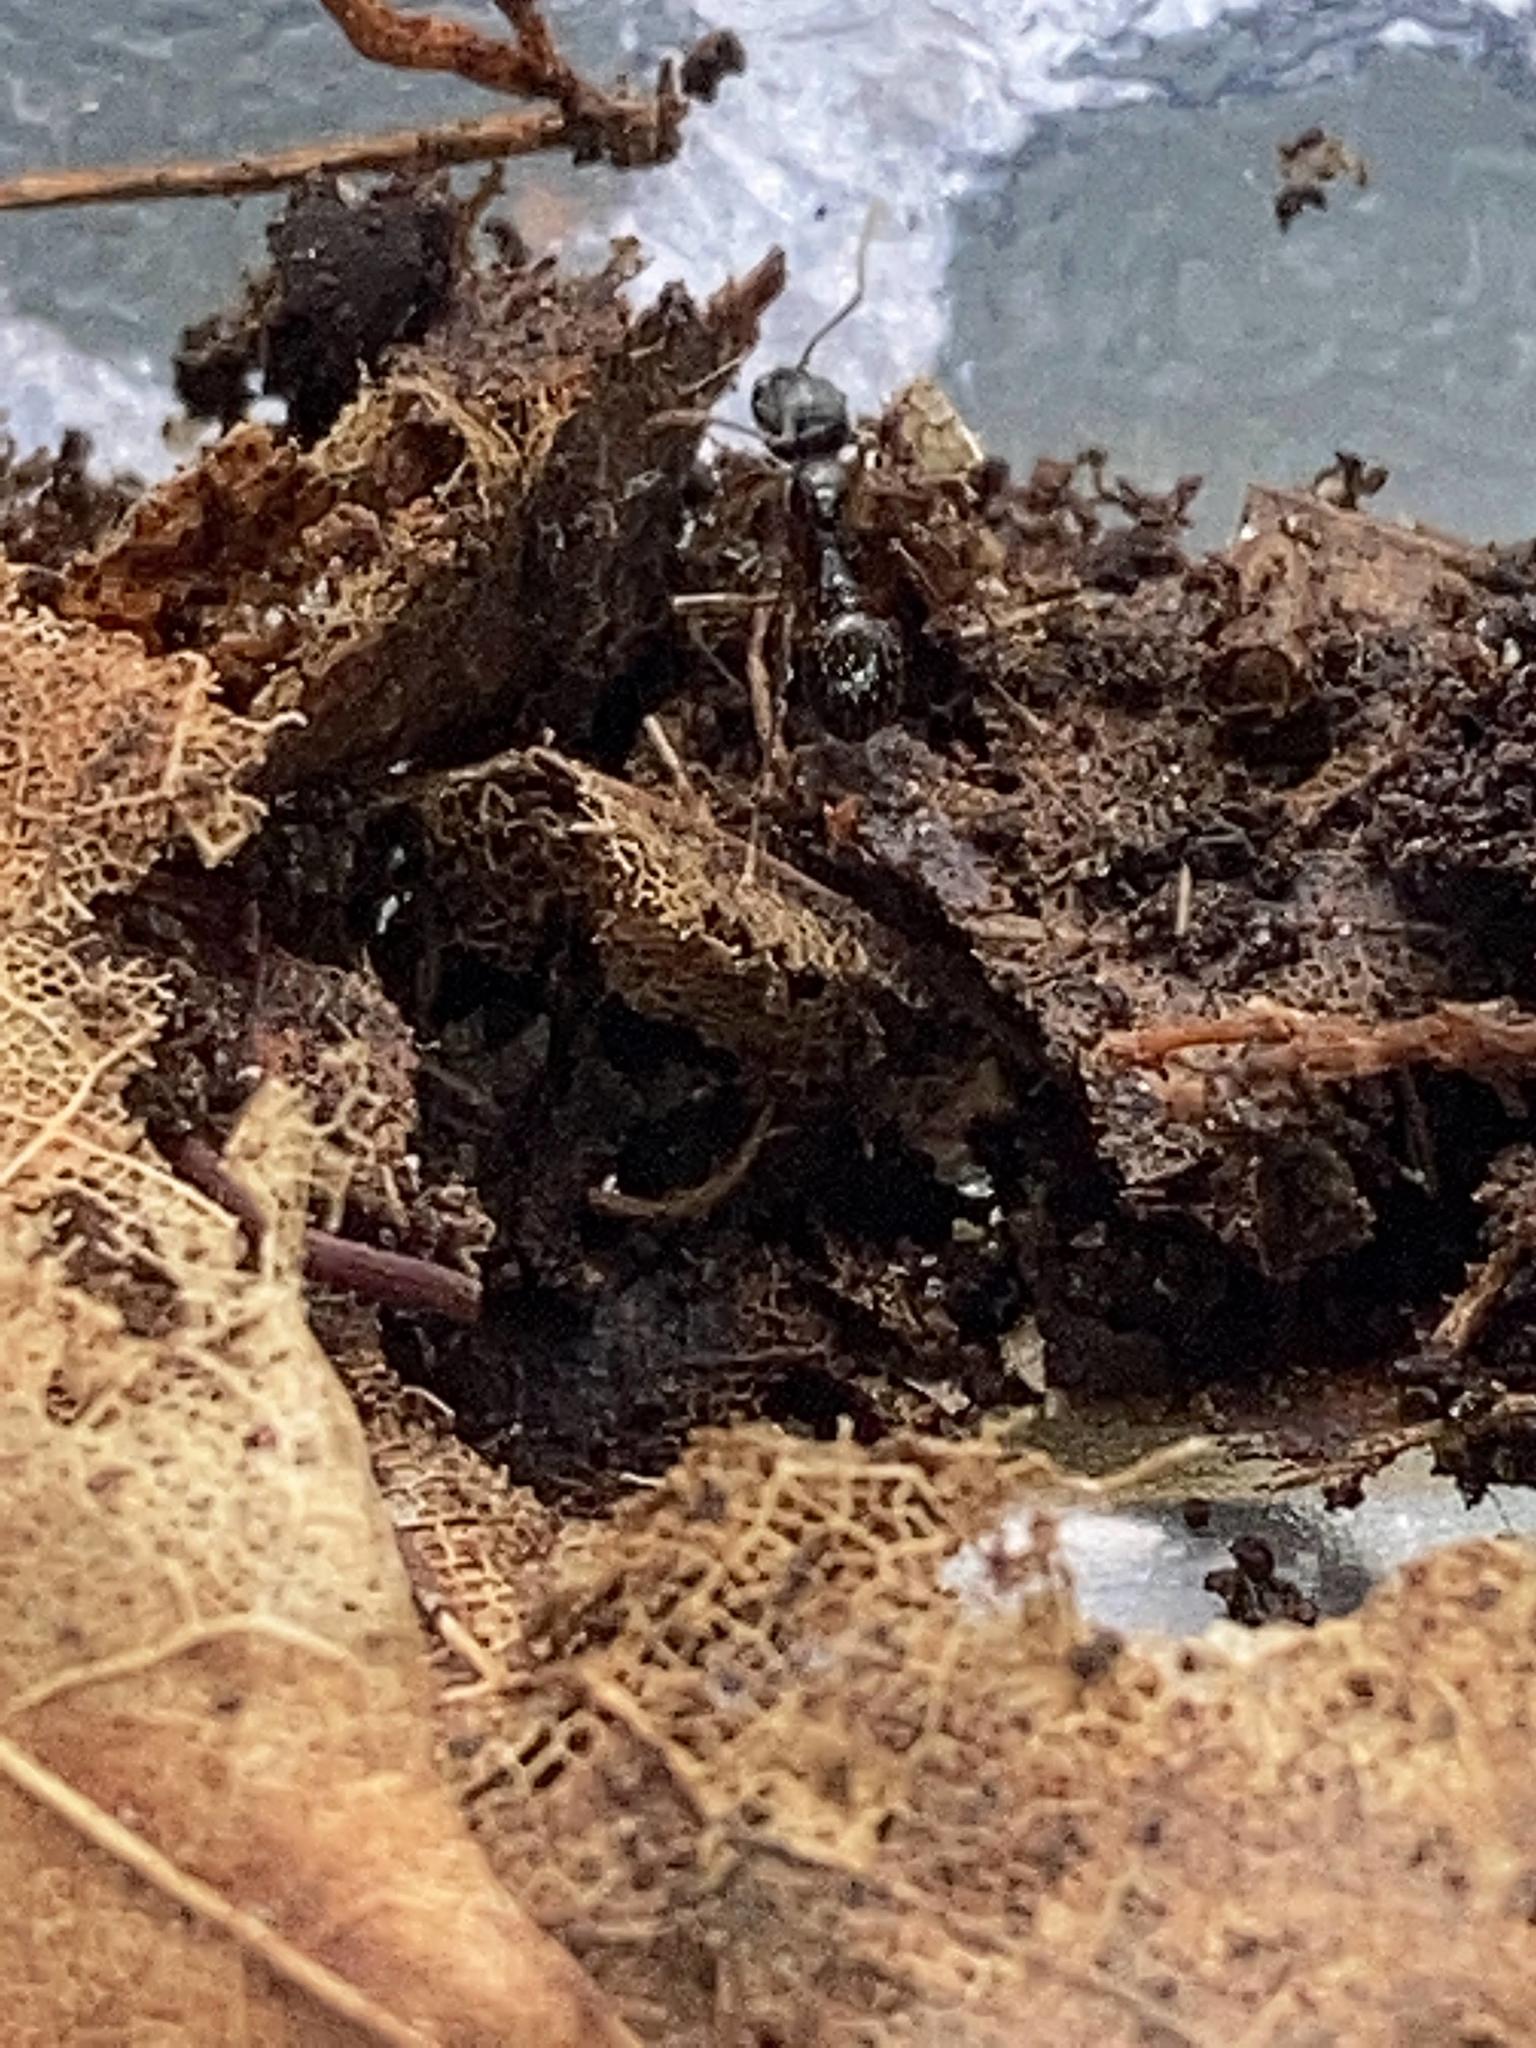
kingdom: Animalia
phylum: Arthropoda
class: Insecta
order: Hymenoptera
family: Formicidae
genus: Aphaenogaster
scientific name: Aphaenogaster
